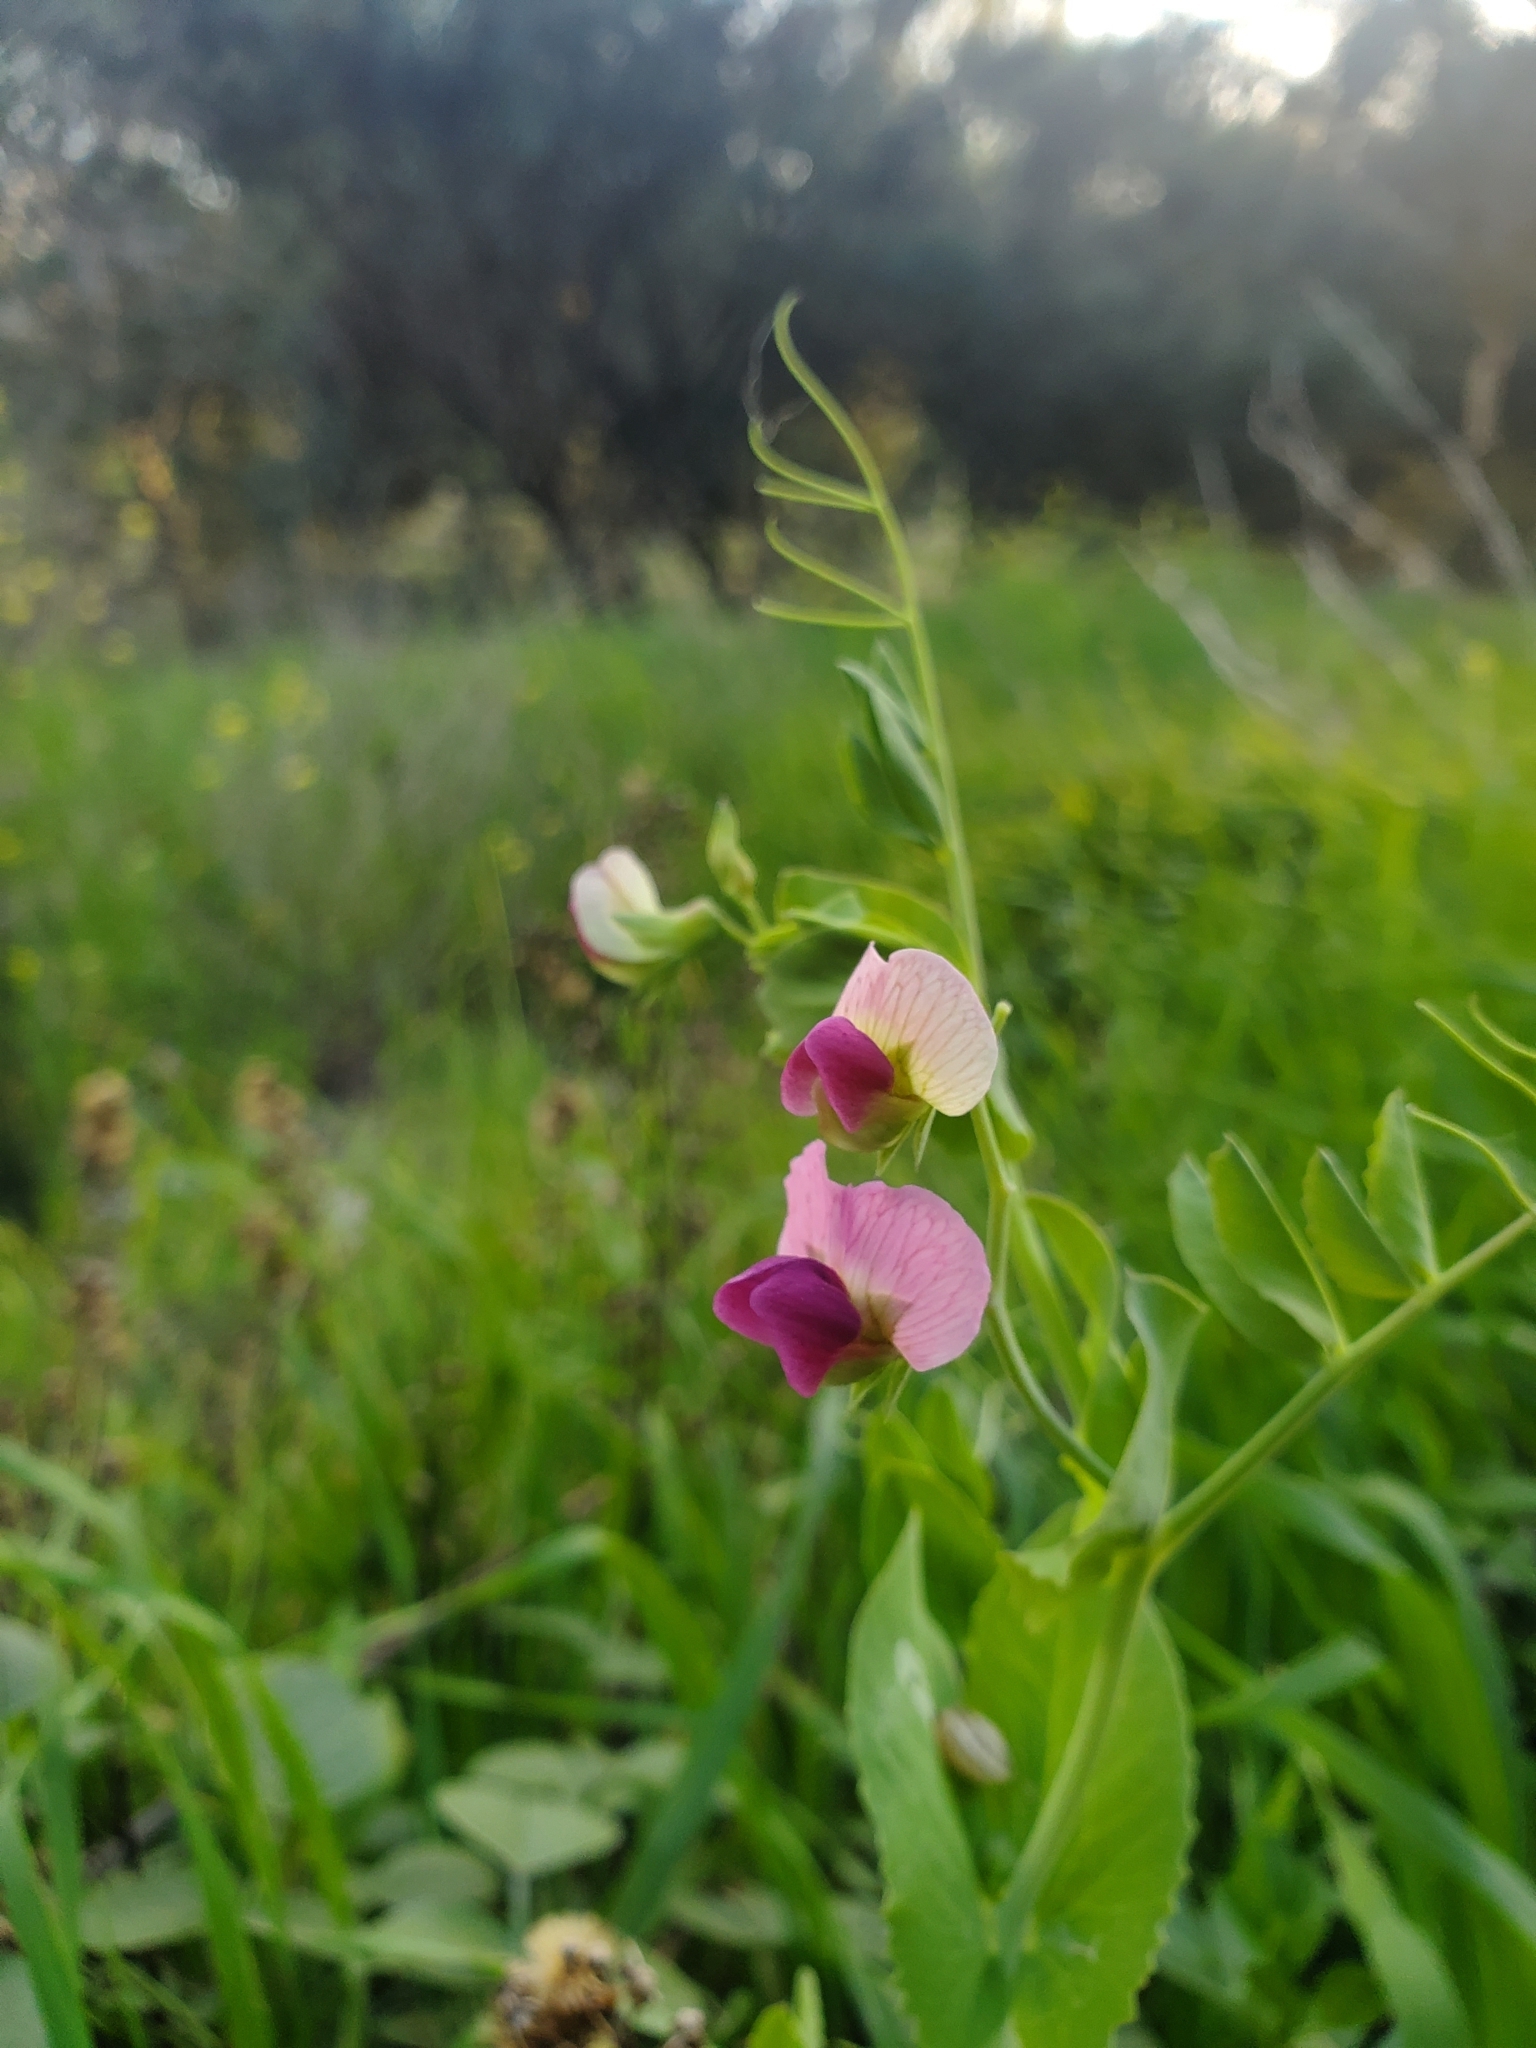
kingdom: Plantae
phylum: Tracheophyta
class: Magnoliopsida
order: Fabales
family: Fabaceae
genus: Lathyrus
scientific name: Lathyrus oleraceus
